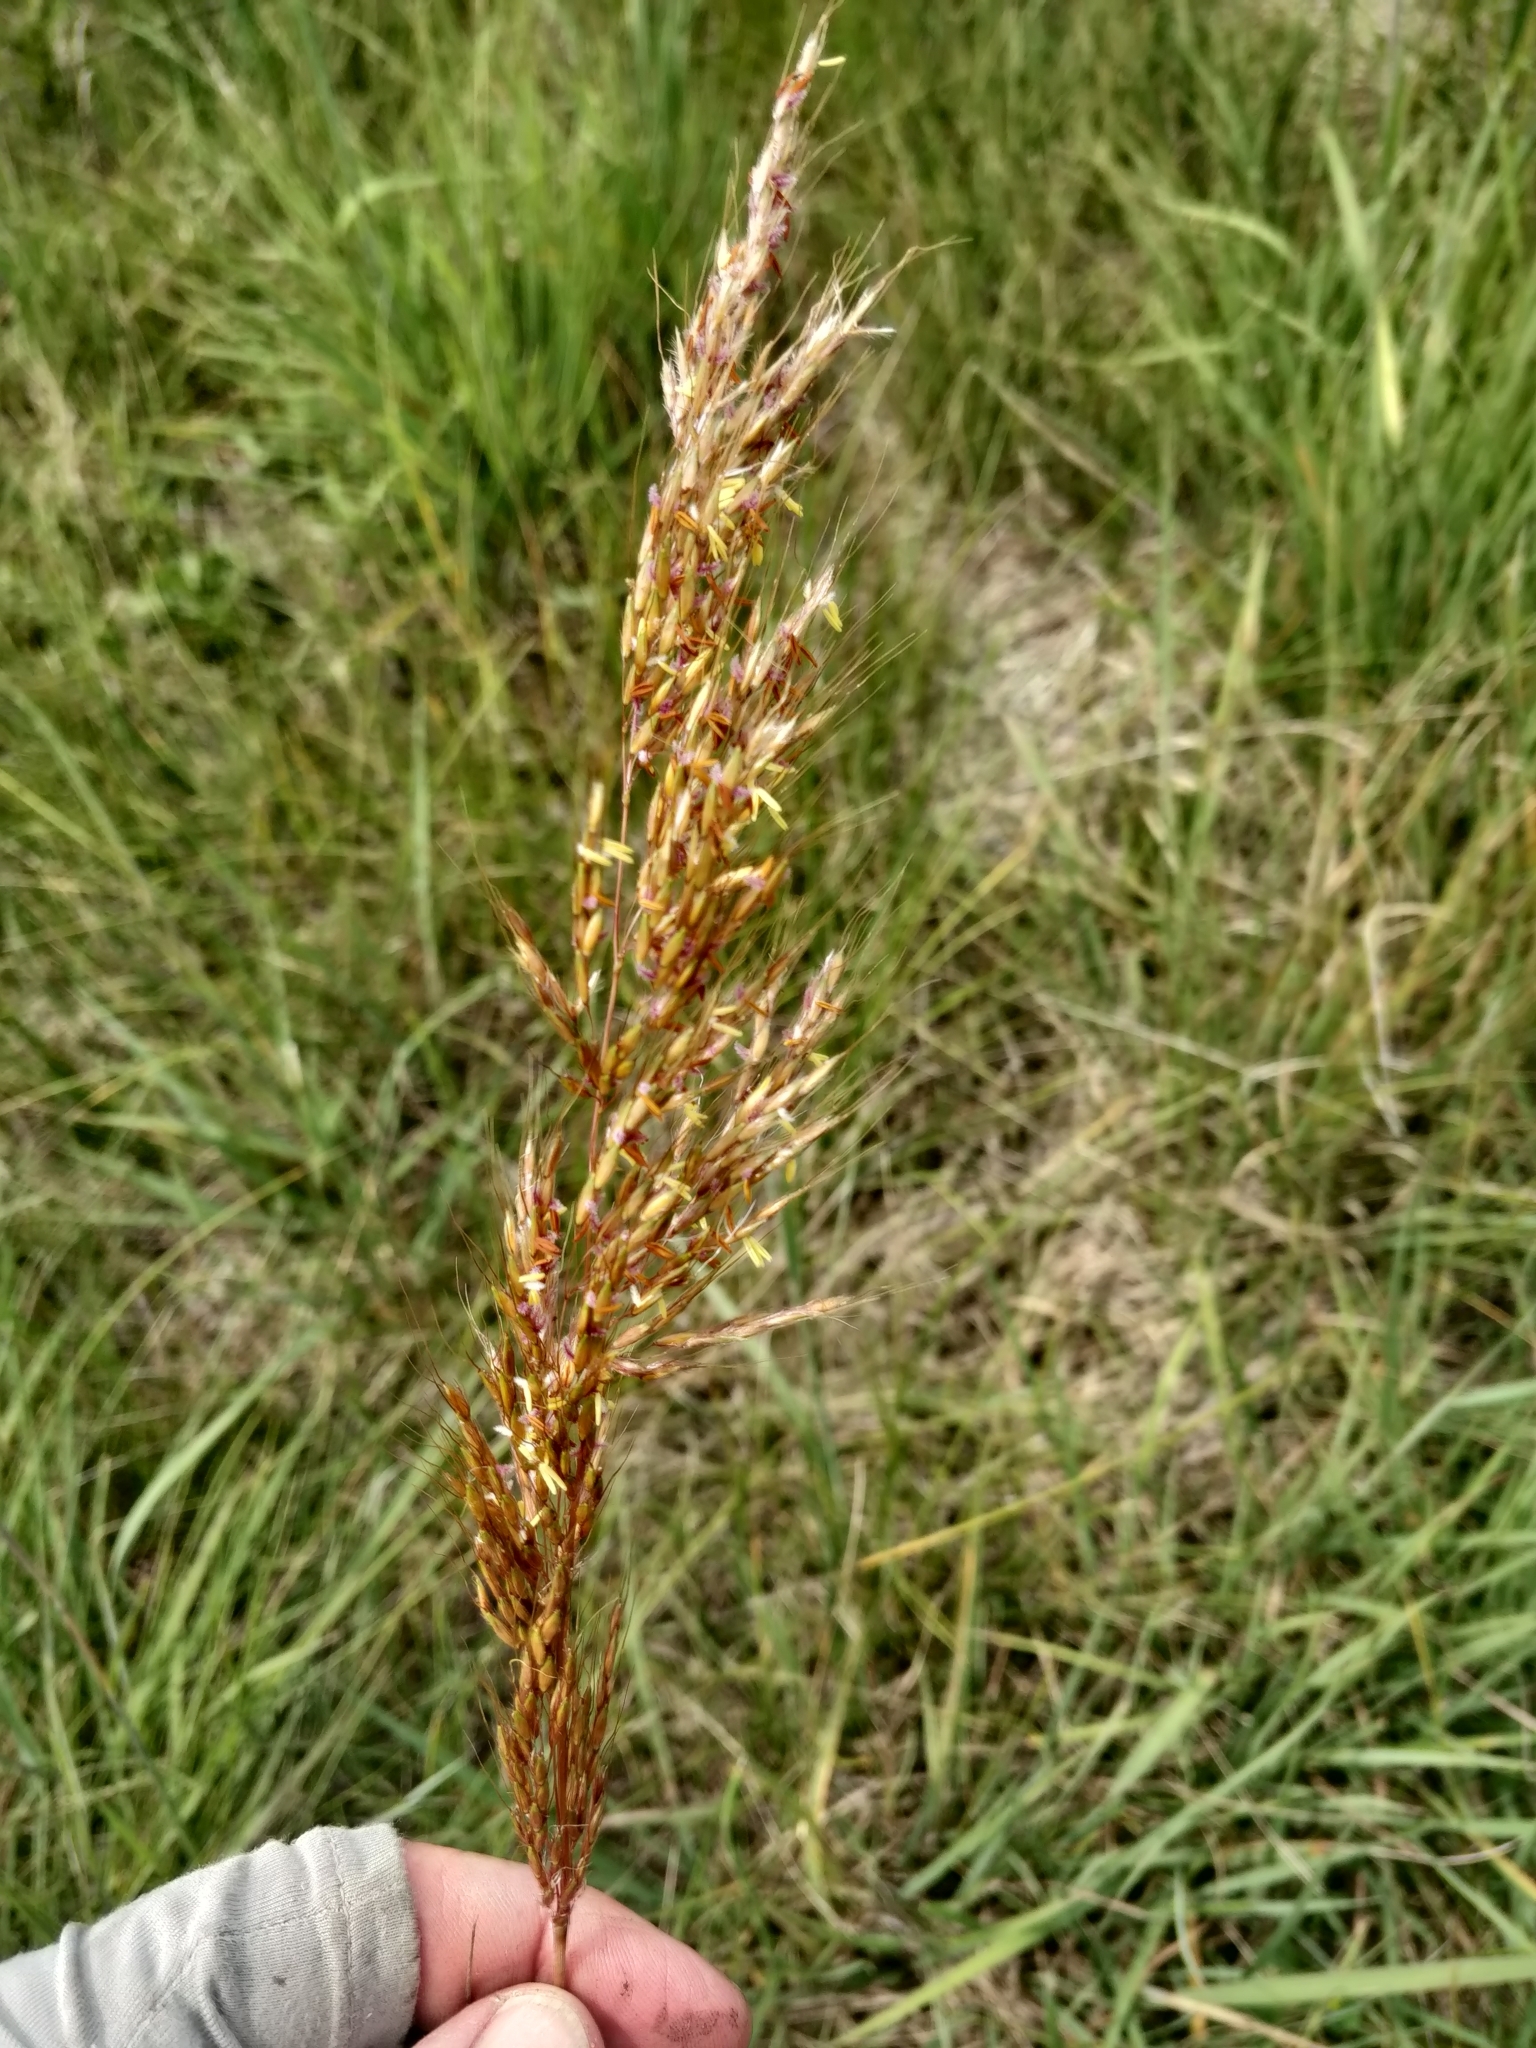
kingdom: Plantae
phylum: Tracheophyta
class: Liliopsida
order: Poales
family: Poaceae
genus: Sorghastrum
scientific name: Sorghastrum nutans
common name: Indian grass
